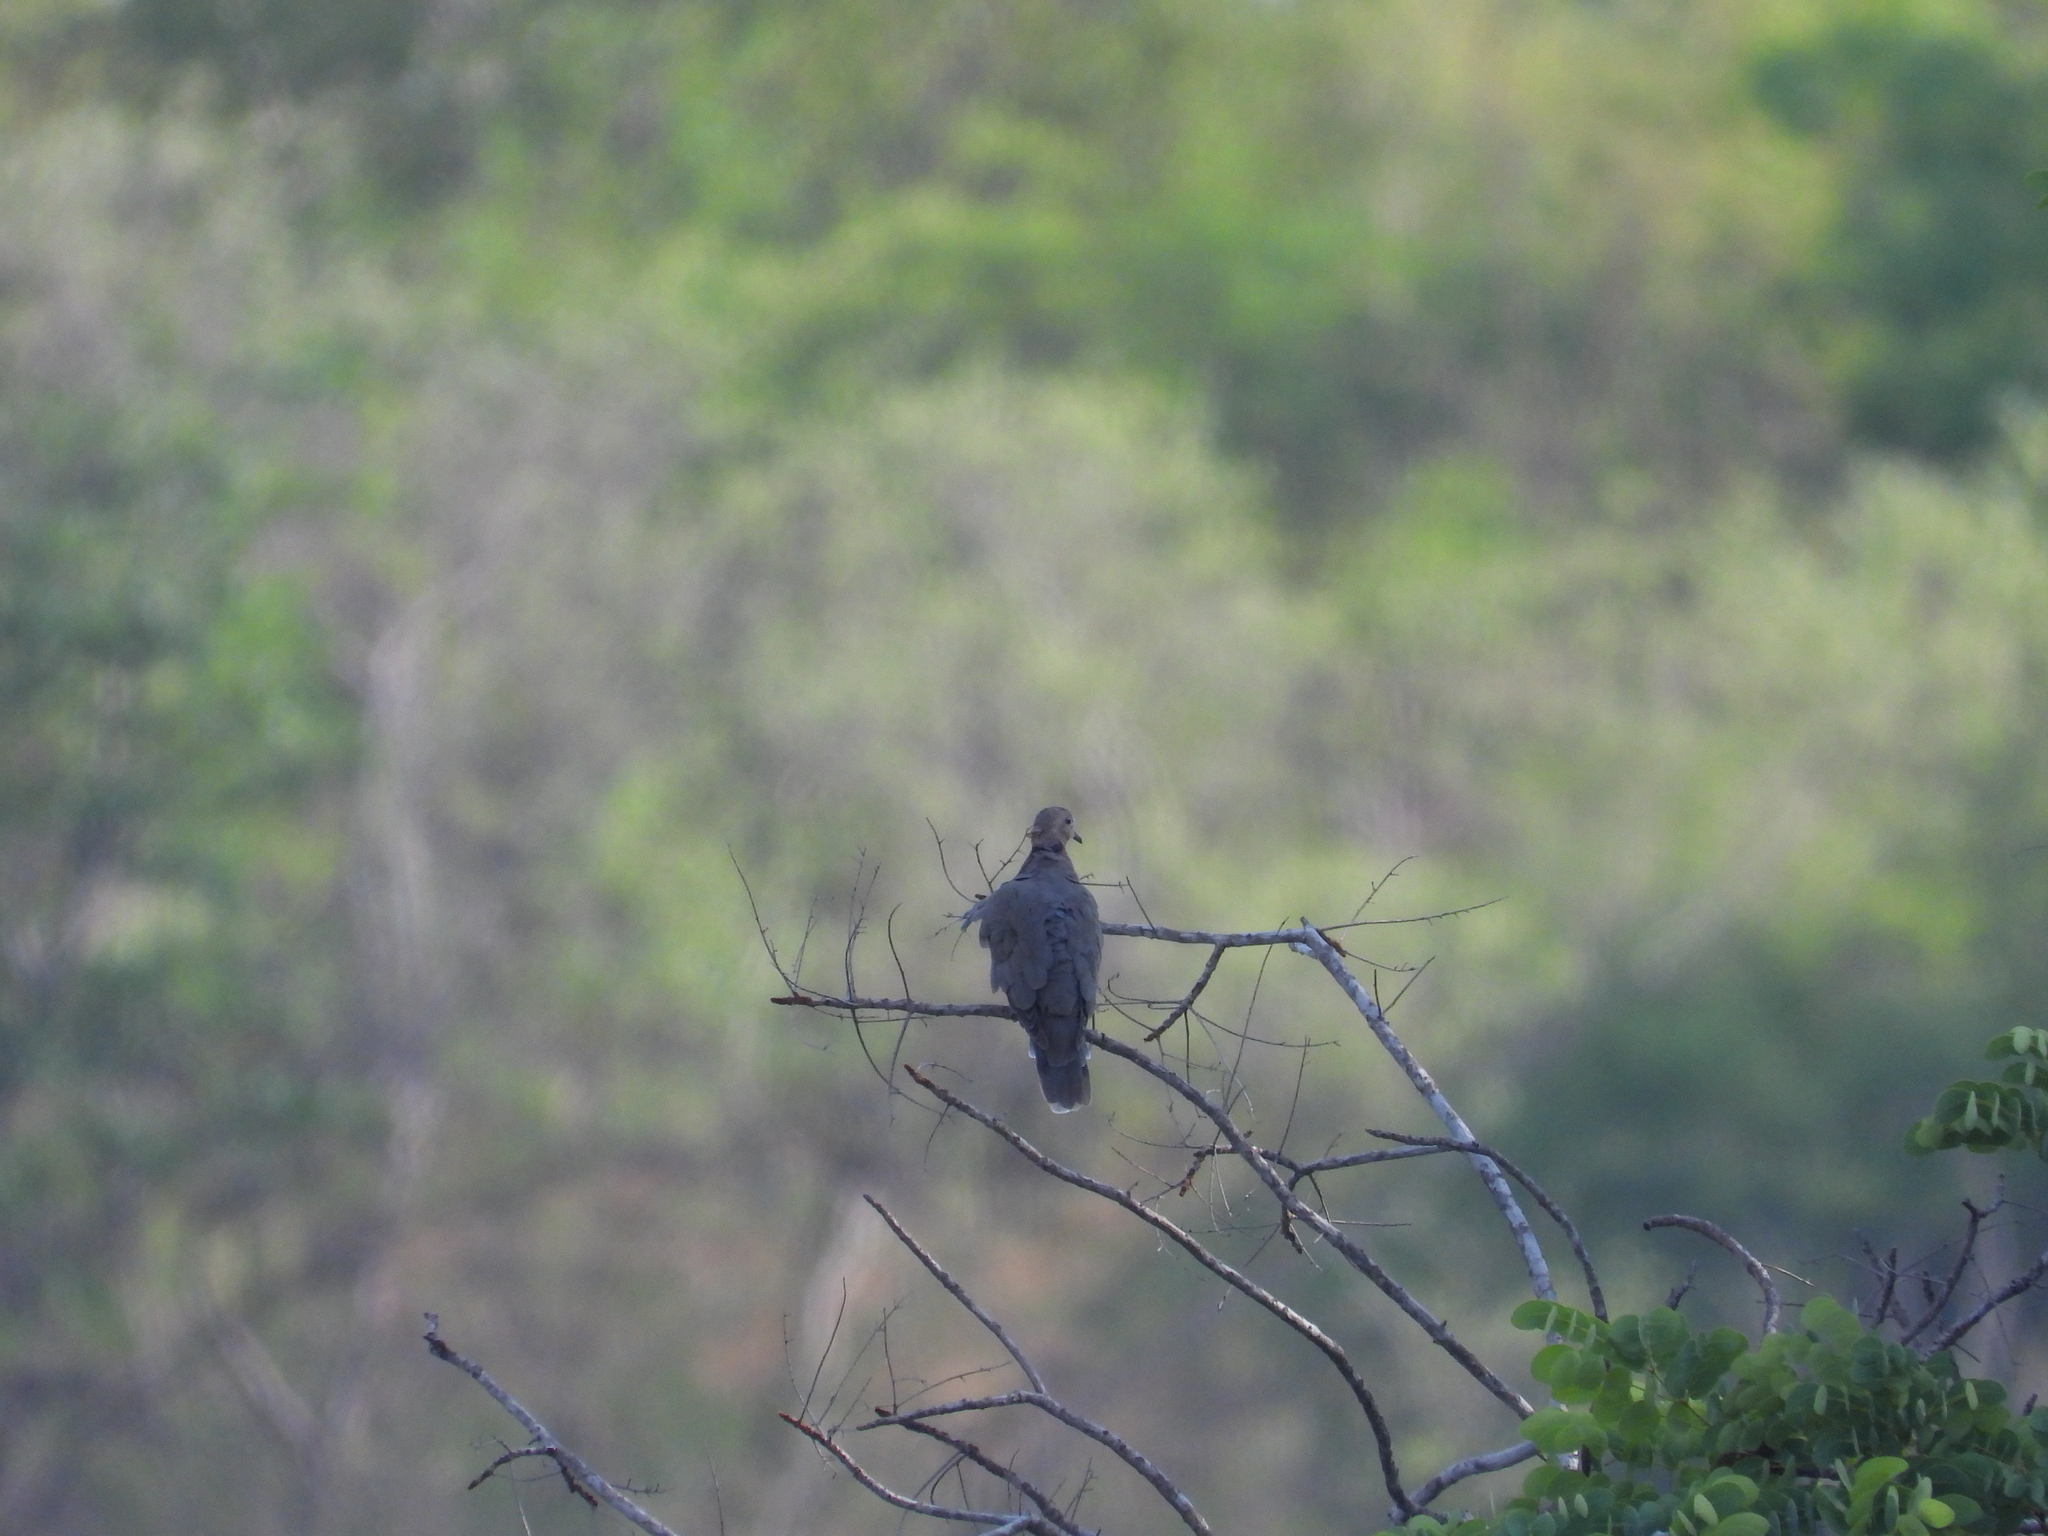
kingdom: Animalia
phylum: Chordata
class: Aves
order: Columbiformes
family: Columbidae
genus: Streptopelia
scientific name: Streptopelia semitorquata
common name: Red-eyed dove
